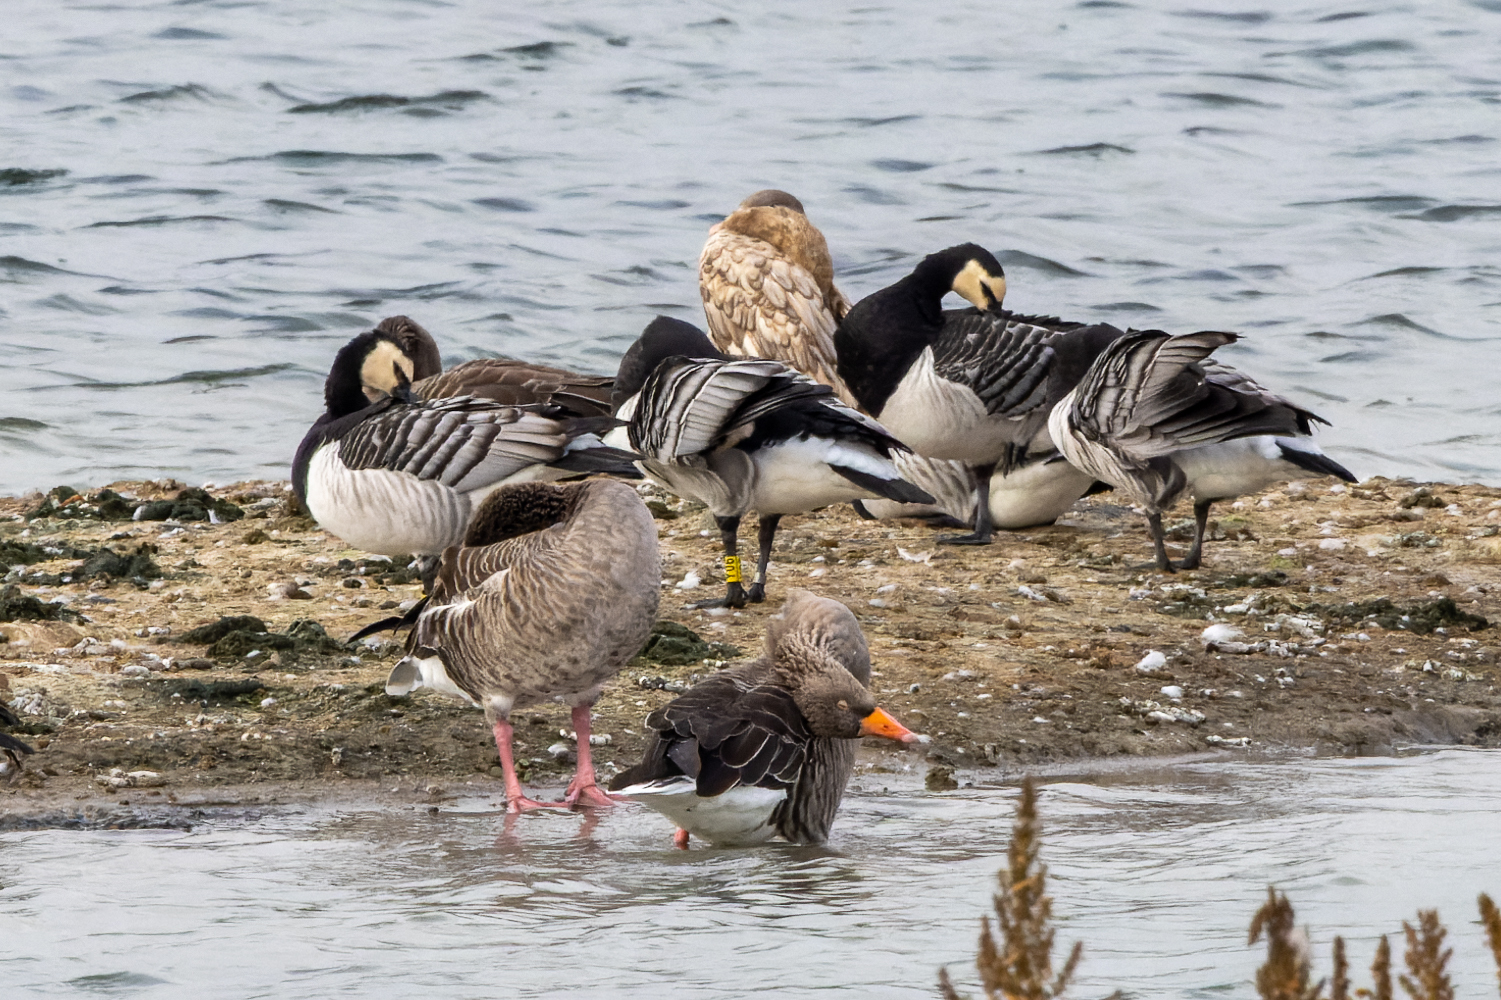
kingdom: Animalia
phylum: Chordata
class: Aves
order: Anseriformes
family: Anatidae
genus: Branta
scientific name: Branta leucopsis
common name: Barnacle goose
